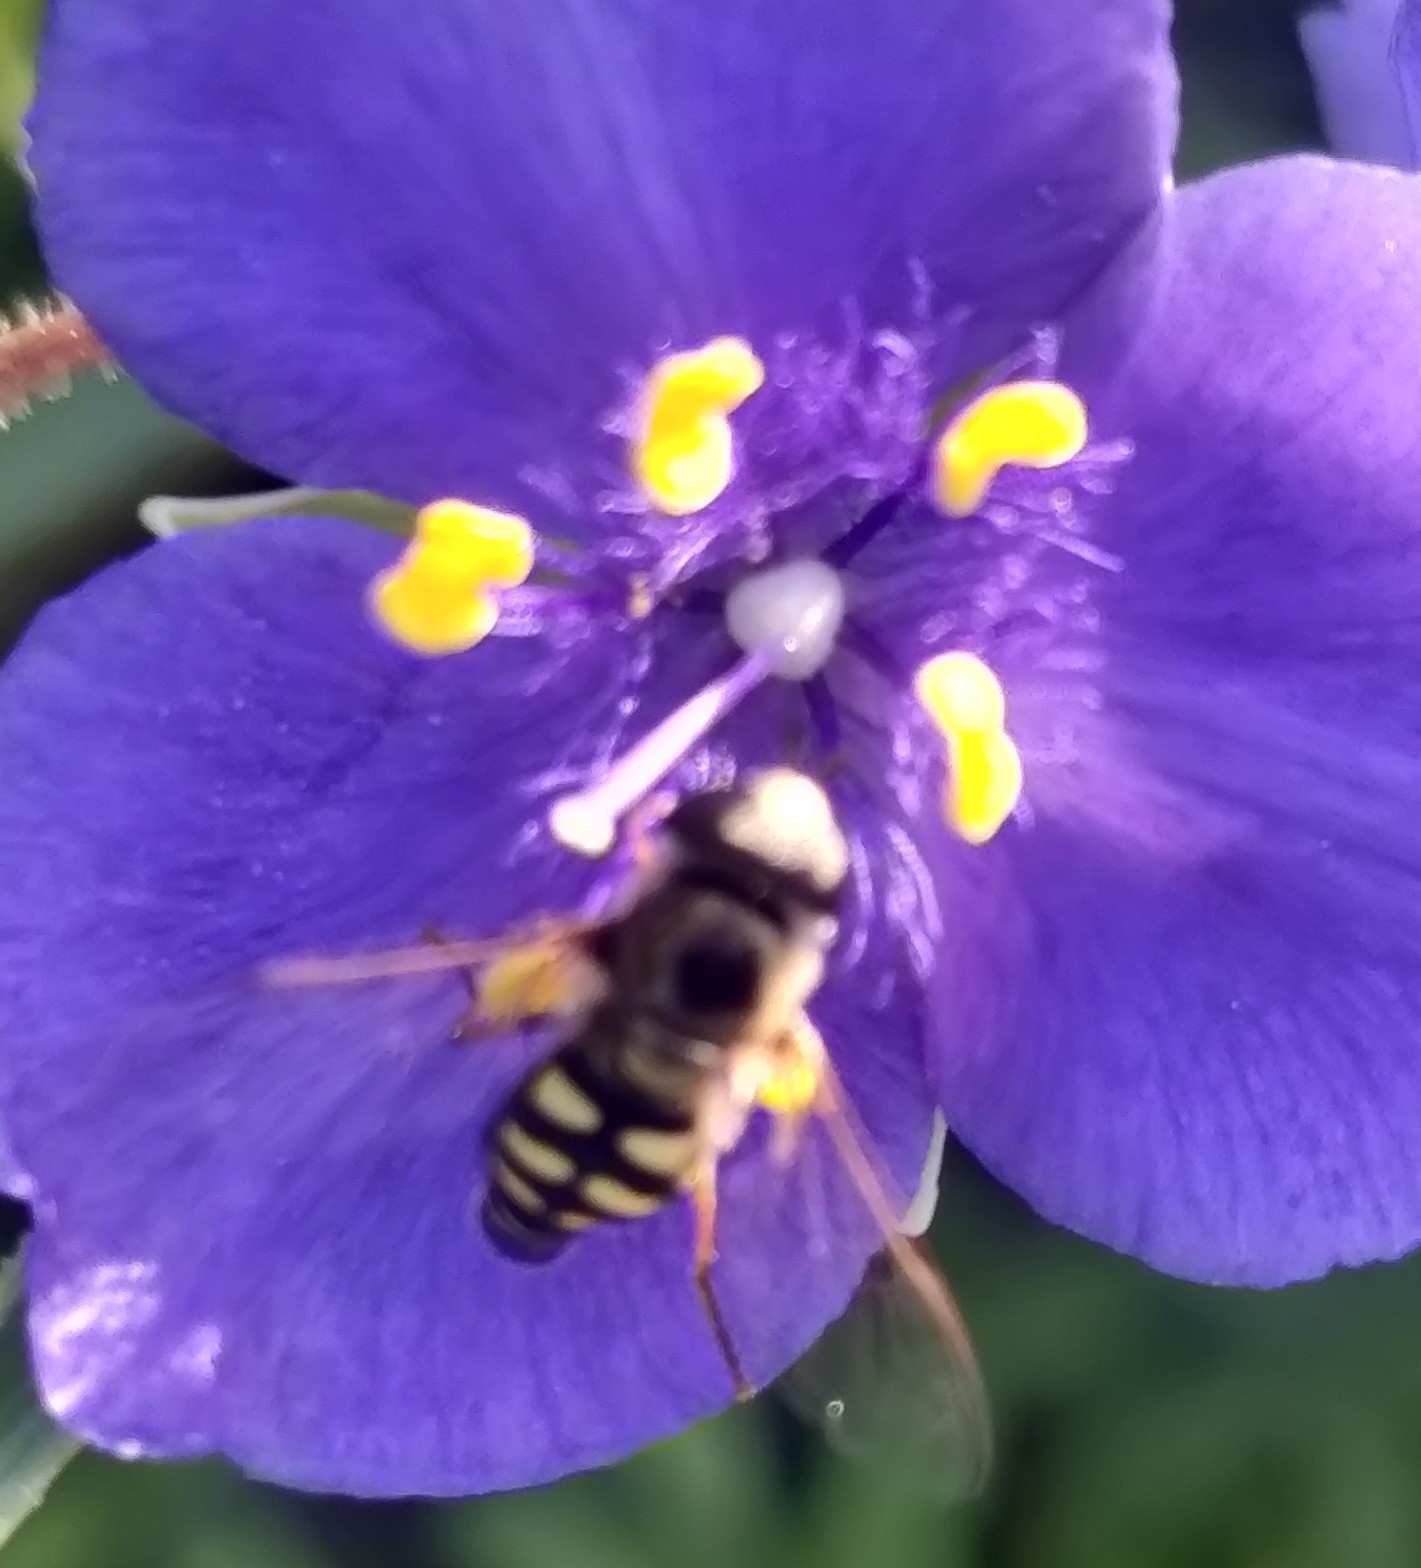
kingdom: Animalia
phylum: Arthropoda
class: Insecta
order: Diptera
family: Syrphidae
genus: Eupeodes
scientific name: Eupeodes volucris
